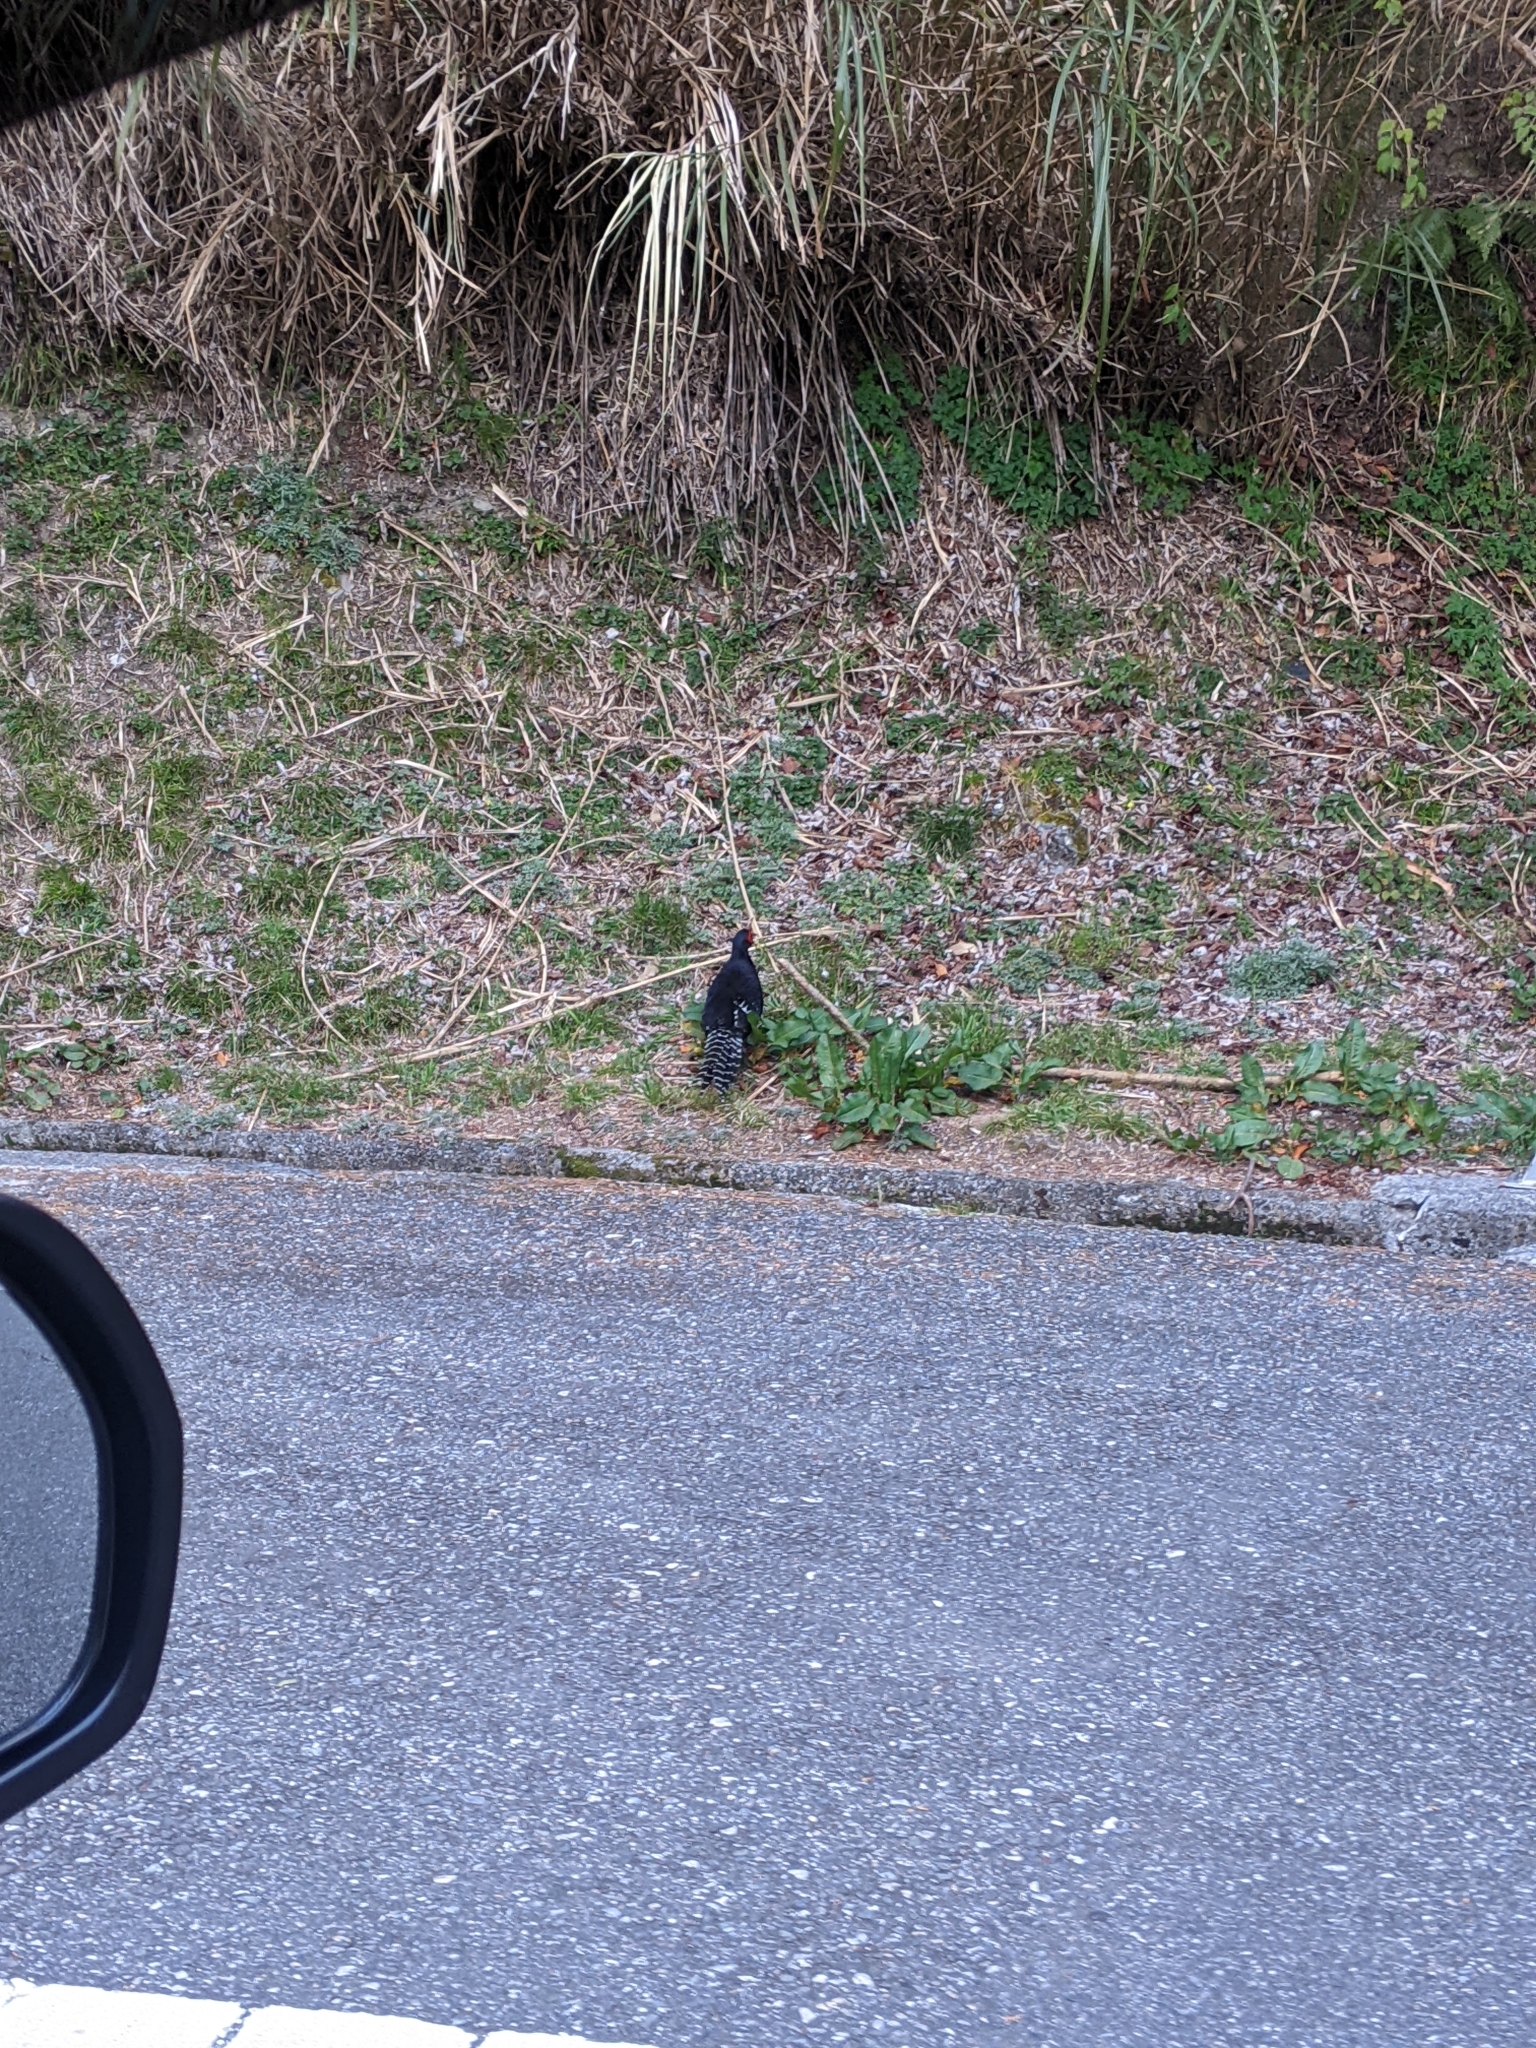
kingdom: Animalia
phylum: Chordata
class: Aves
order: Galliformes
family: Phasianidae
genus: Syrmaticus
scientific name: Syrmaticus mikado
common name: Mikado pheasant
